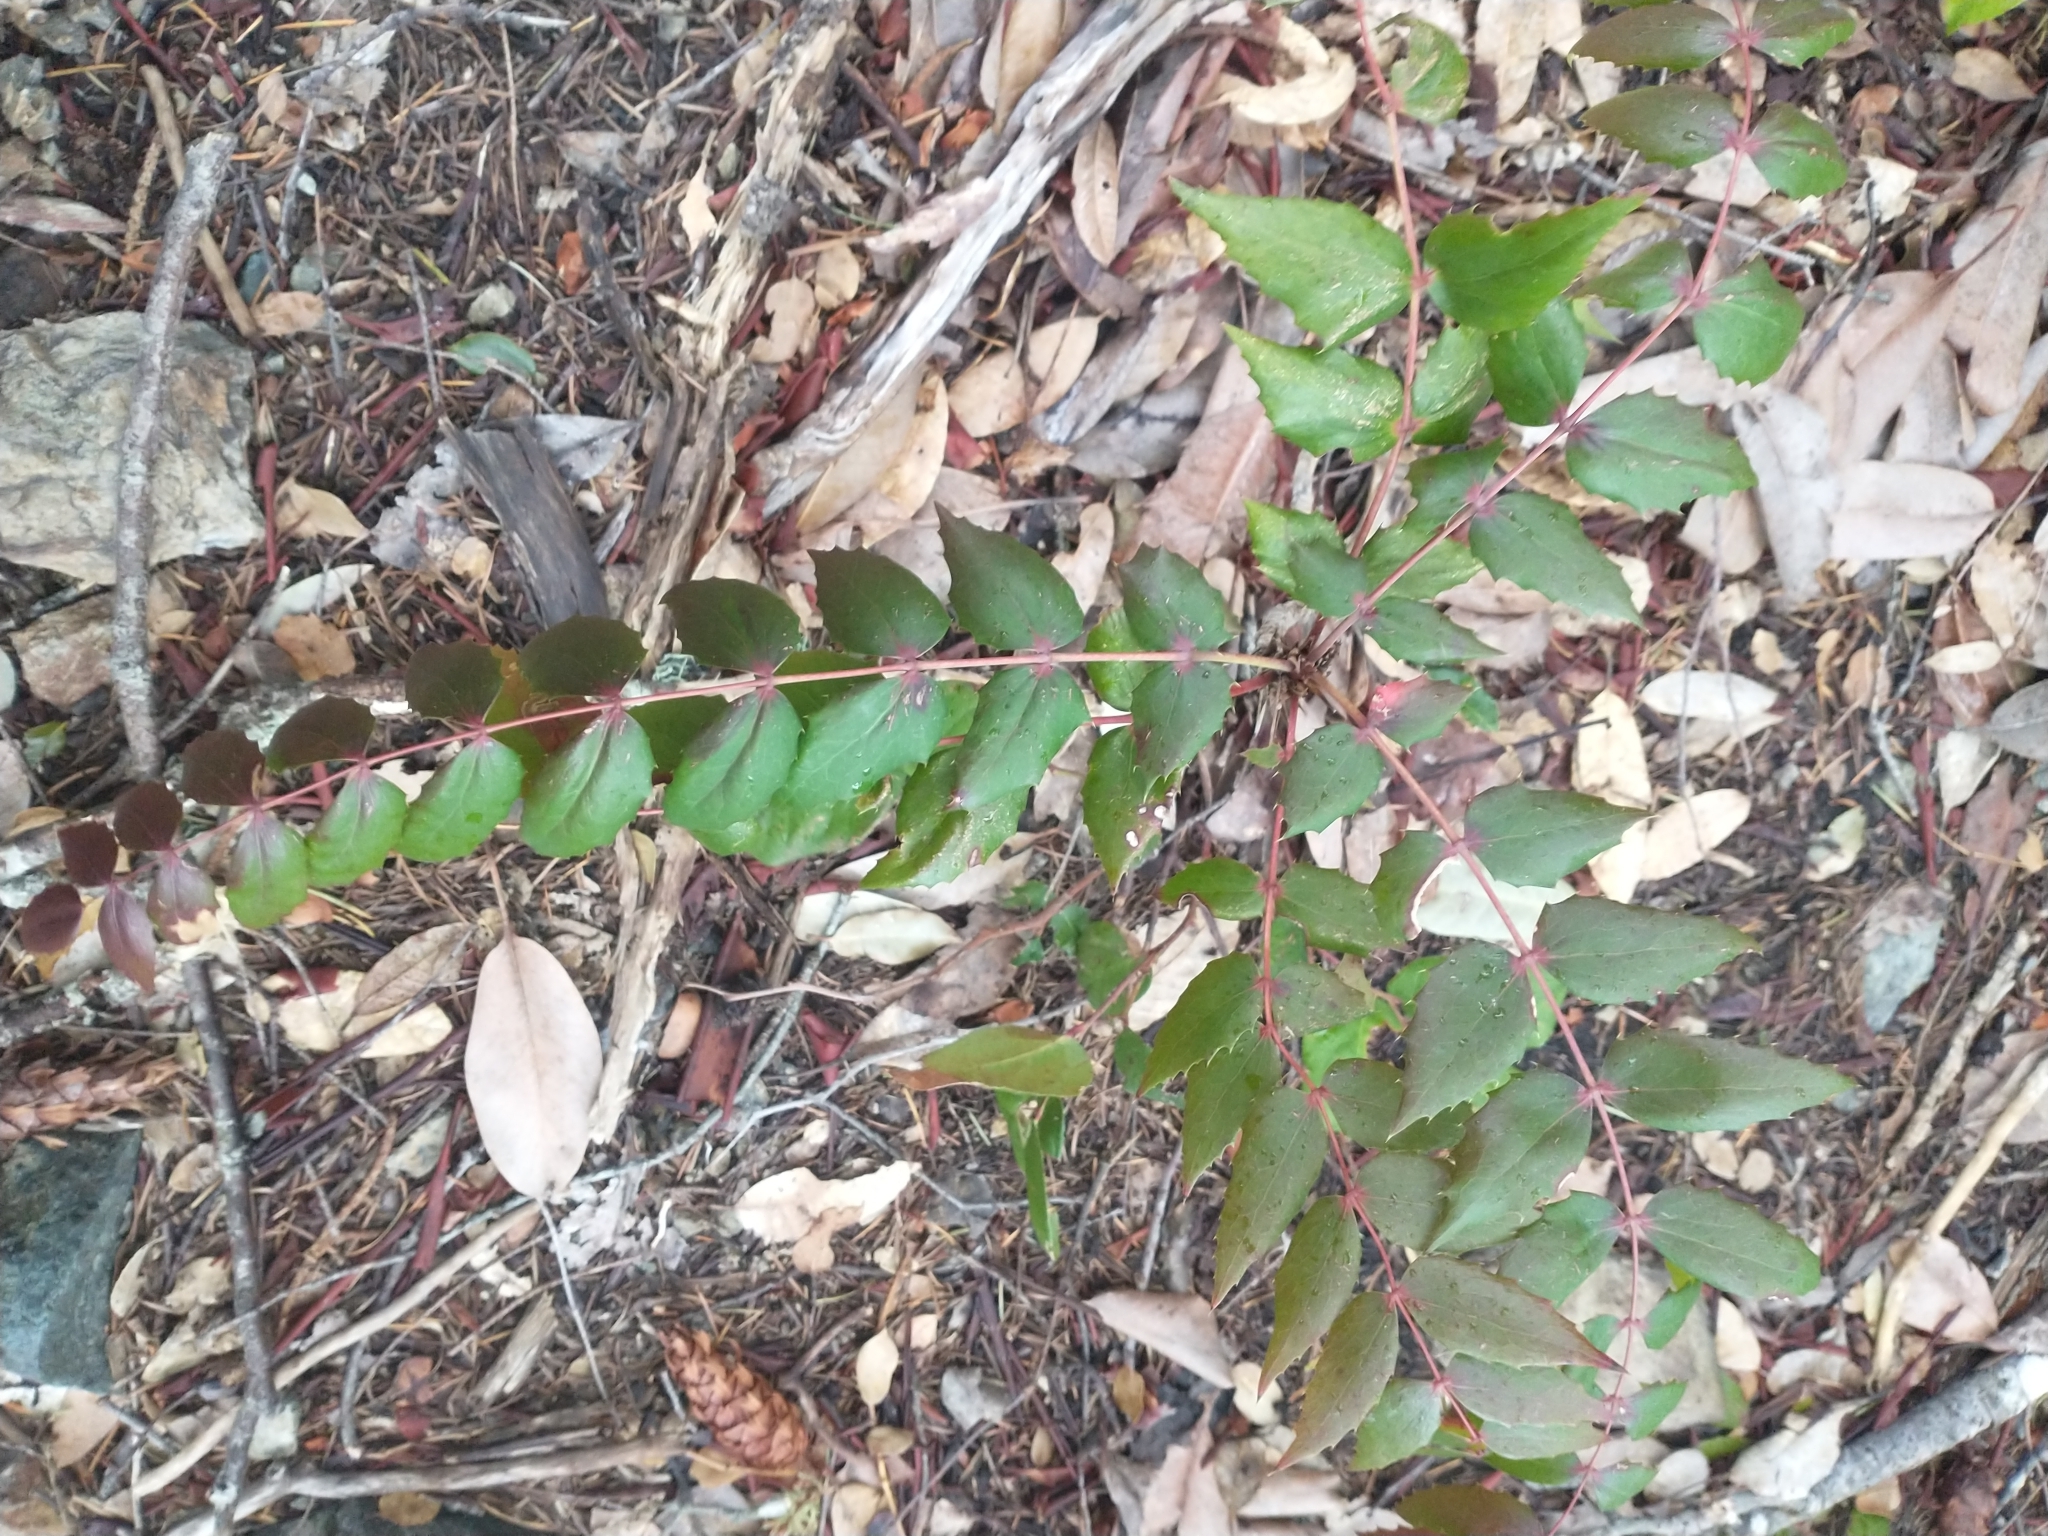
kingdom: Plantae
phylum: Tracheophyta
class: Magnoliopsida
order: Ranunculales
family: Berberidaceae
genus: Mahonia
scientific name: Mahonia nervosa
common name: Cascade oregon-grape
